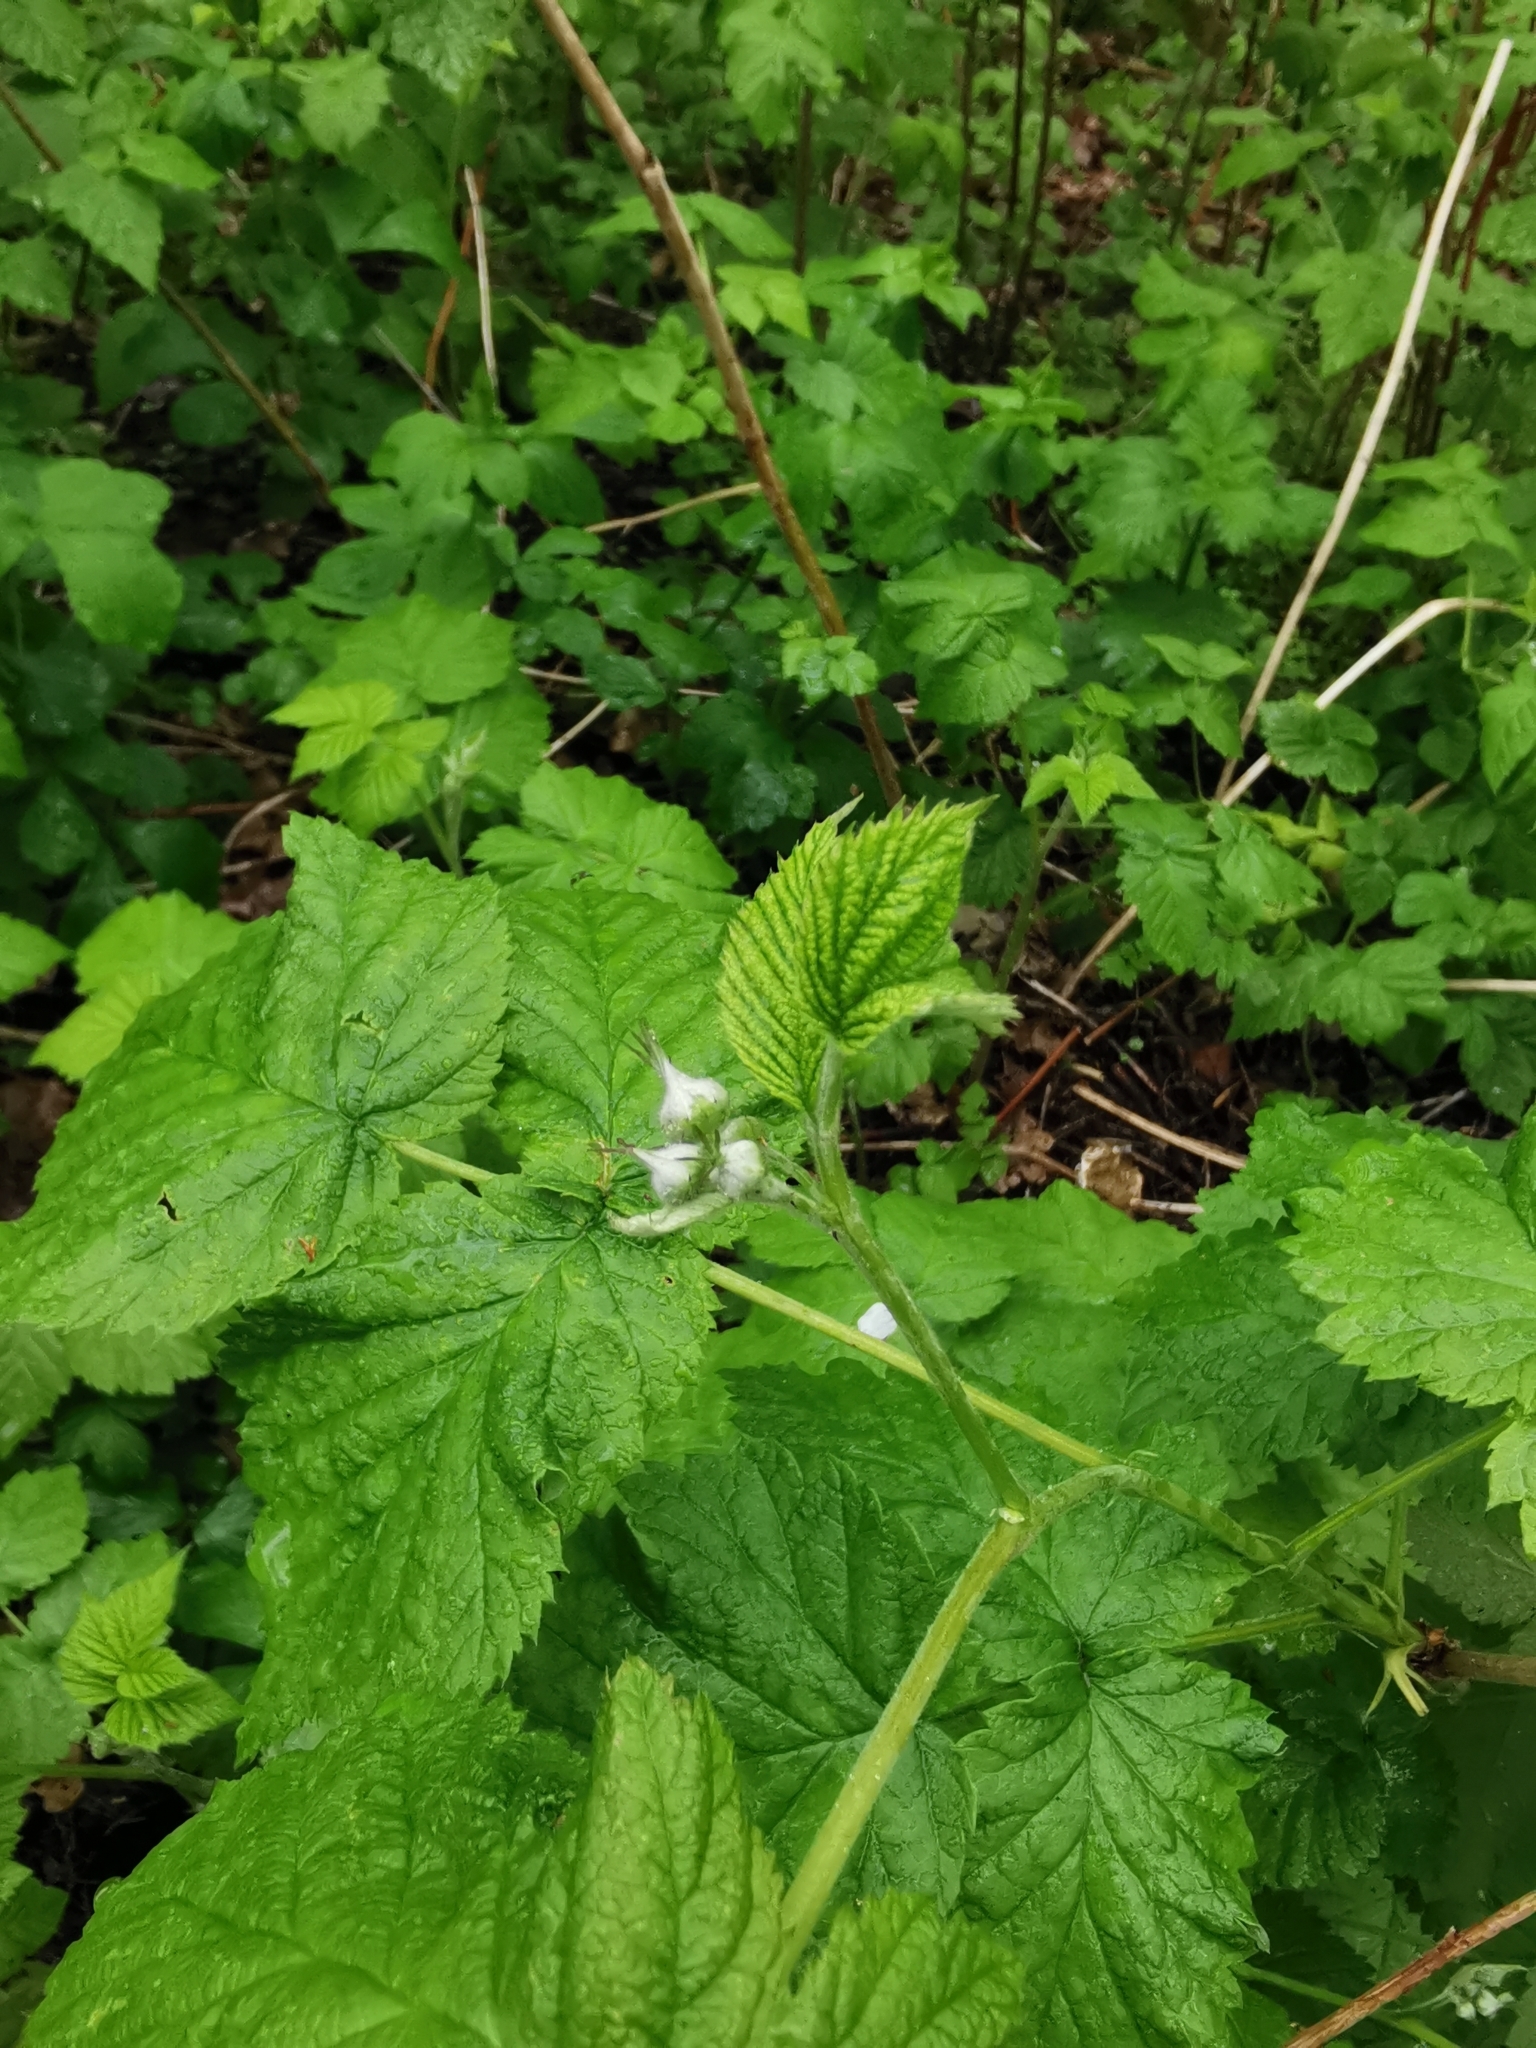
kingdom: Plantae
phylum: Tracheophyta
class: Magnoliopsida
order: Rosales
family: Rosaceae
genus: Rubus
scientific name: Rubus idaeus
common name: Raspberry
